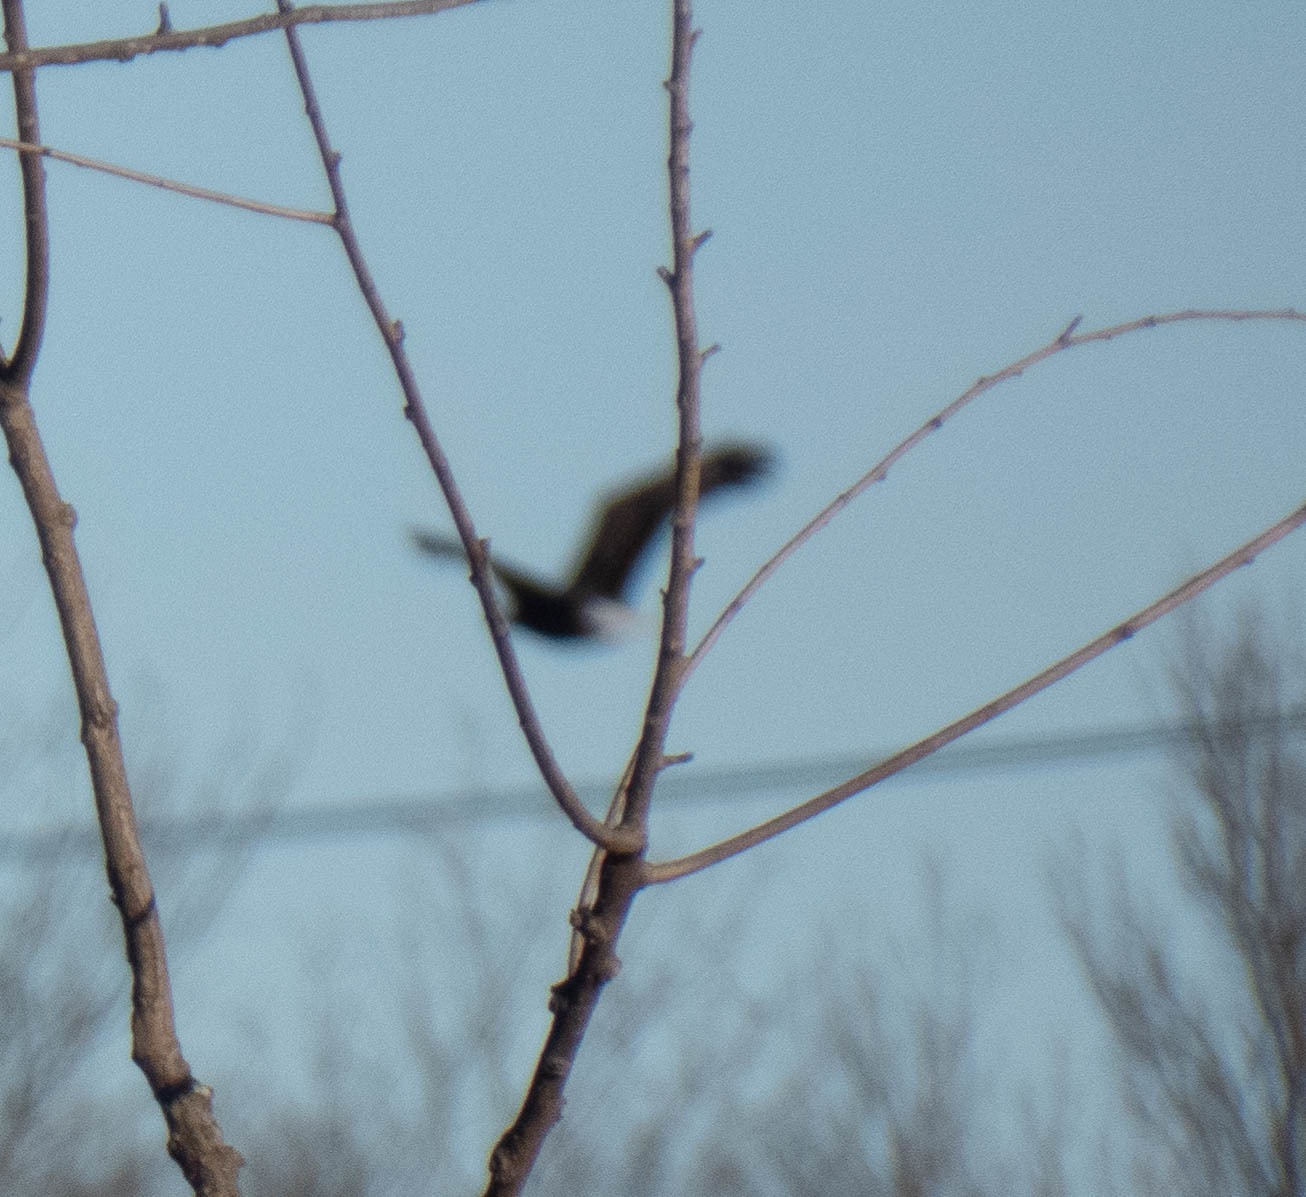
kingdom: Animalia
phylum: Chordata
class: Aves
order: Accipitriformes
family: Accipitridae
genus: Haliaeetus
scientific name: Haliaeetus leucocephalus
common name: Bald eagle
